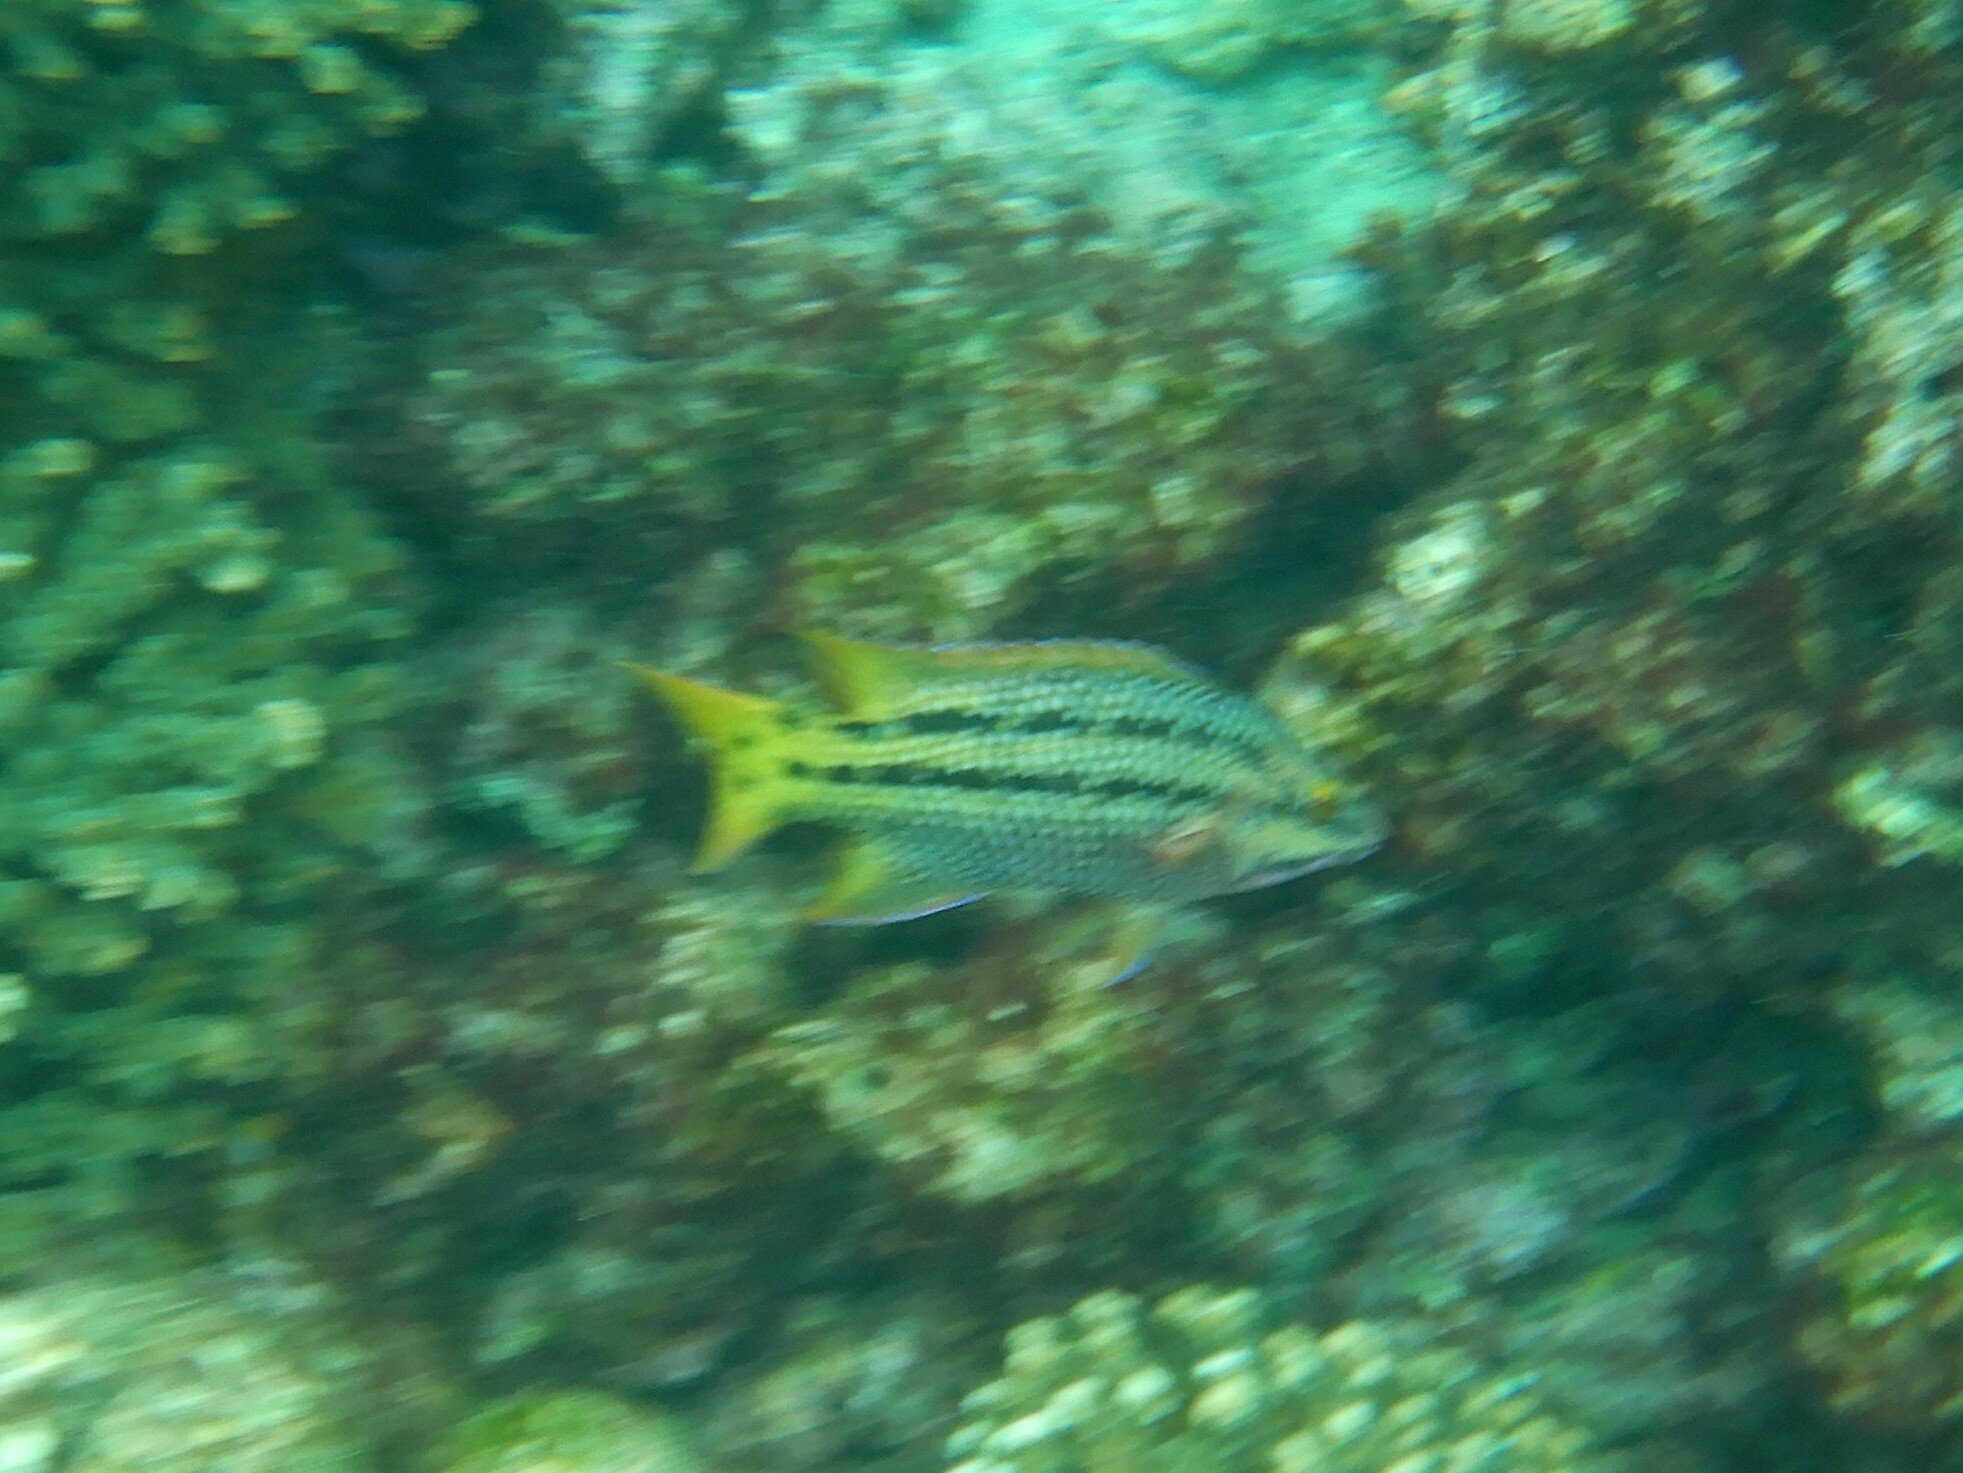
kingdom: Animalia
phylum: Chordata
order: Perciformes
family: Labridae
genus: Bodianus
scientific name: Bodianus diplotaenia
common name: Mexican hogfish
